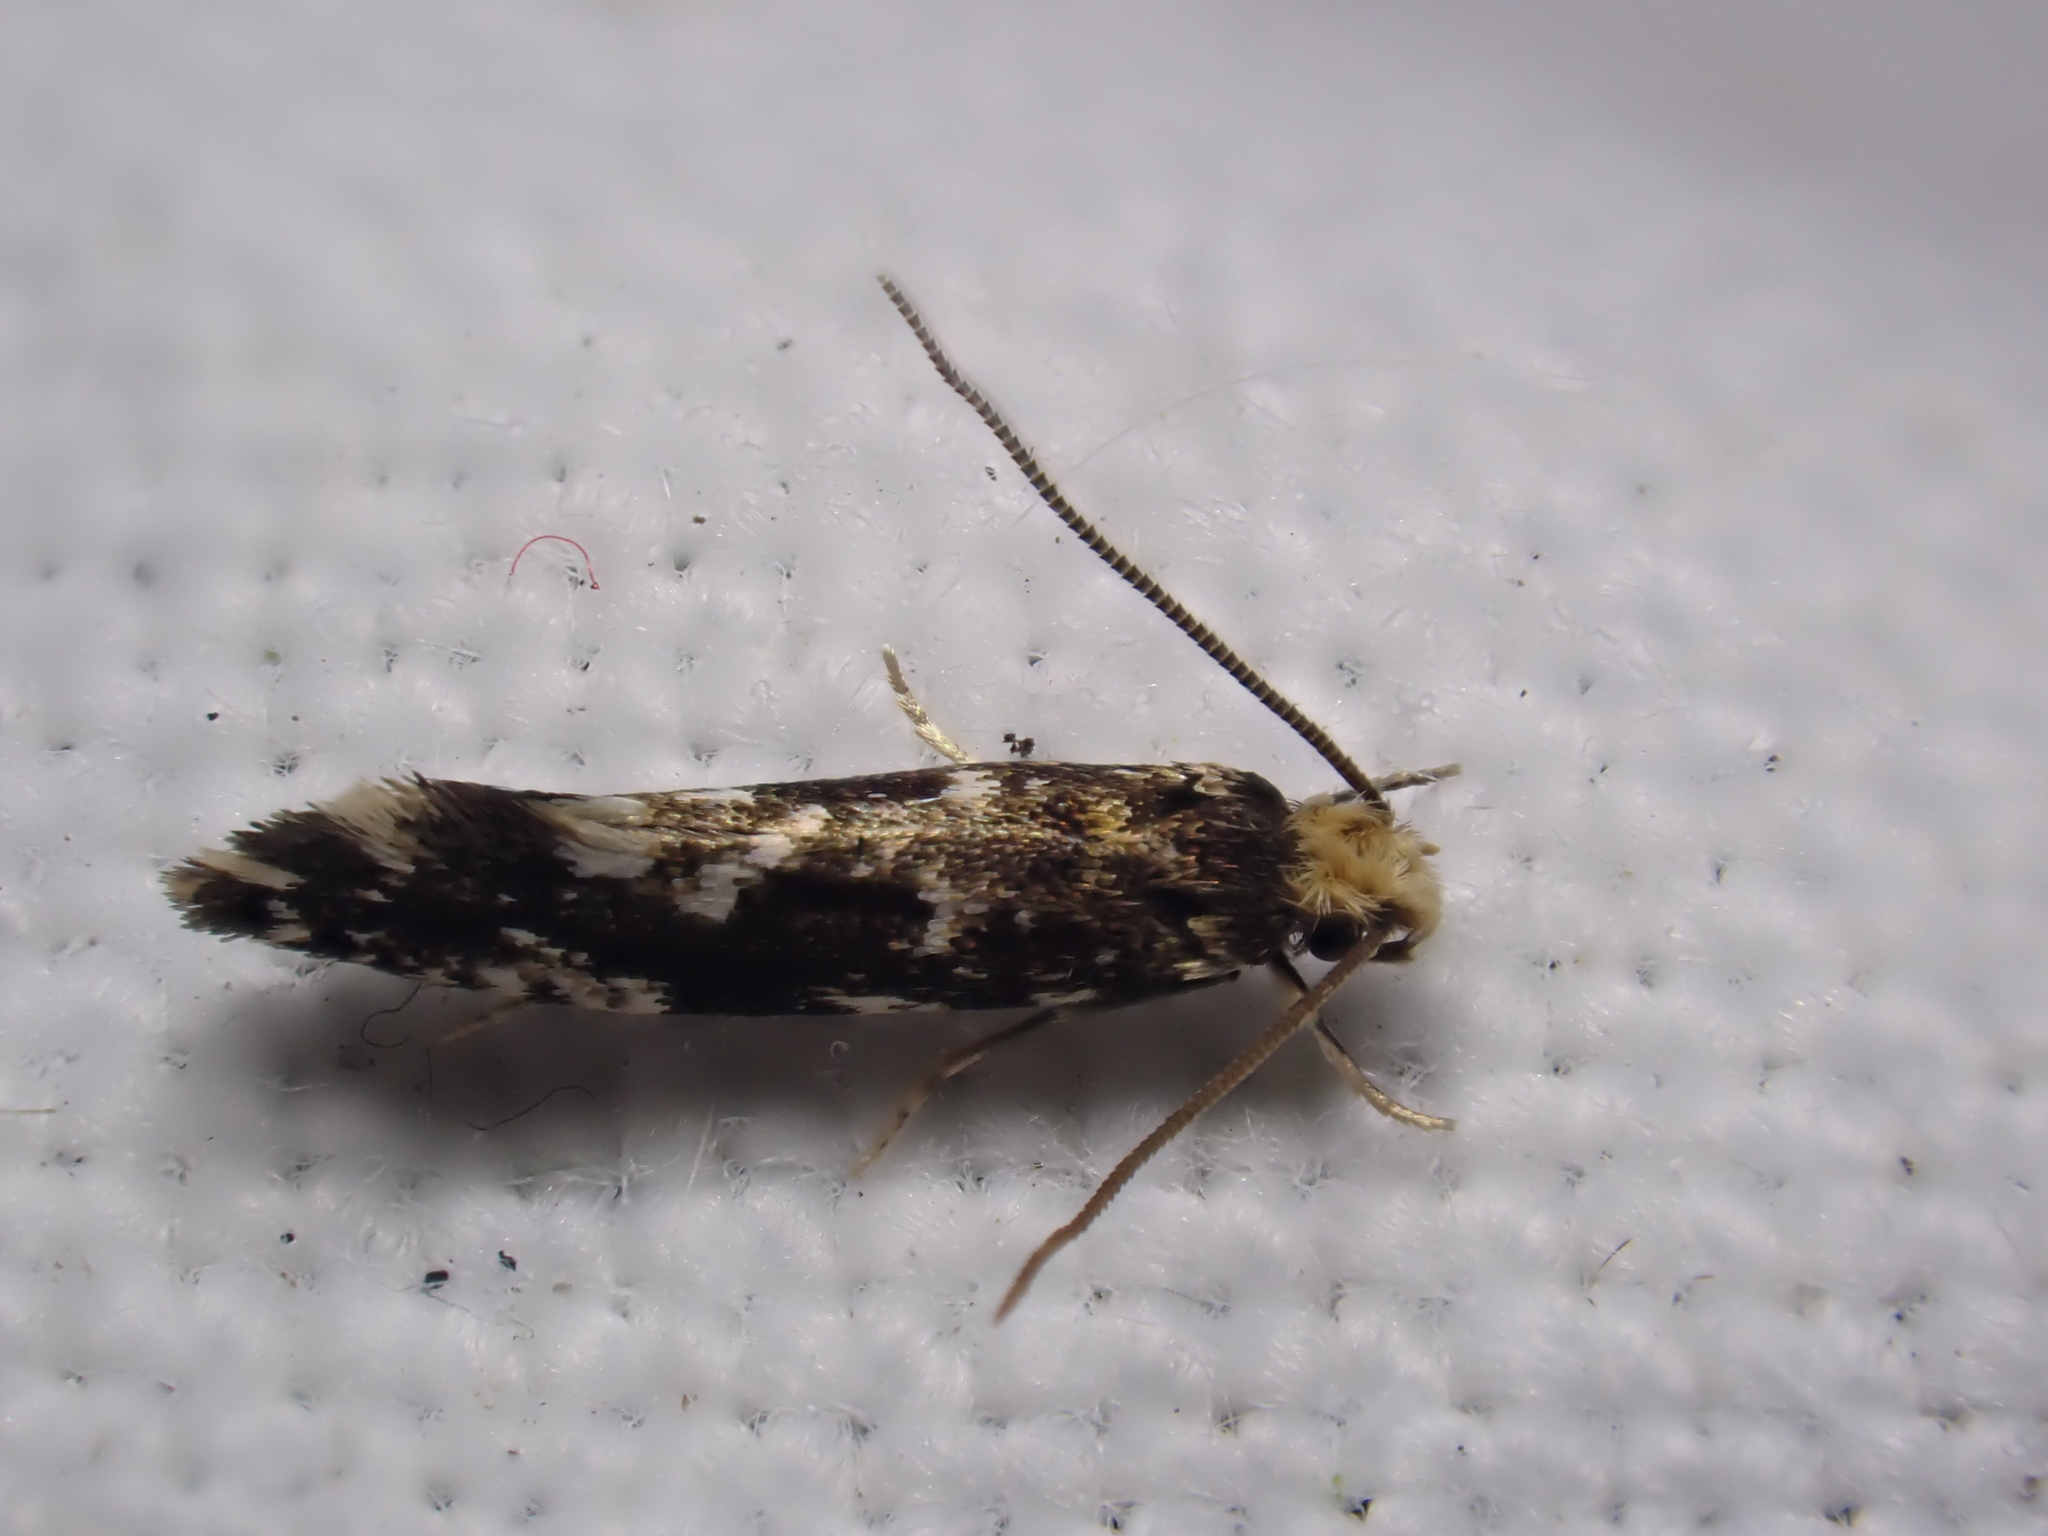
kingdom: Animalia
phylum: Arthropoda
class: Insecta
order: Lepidoptera
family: Tineidae
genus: Nemapogon
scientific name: Nemapogon koenigi
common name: White-speckled clothes
